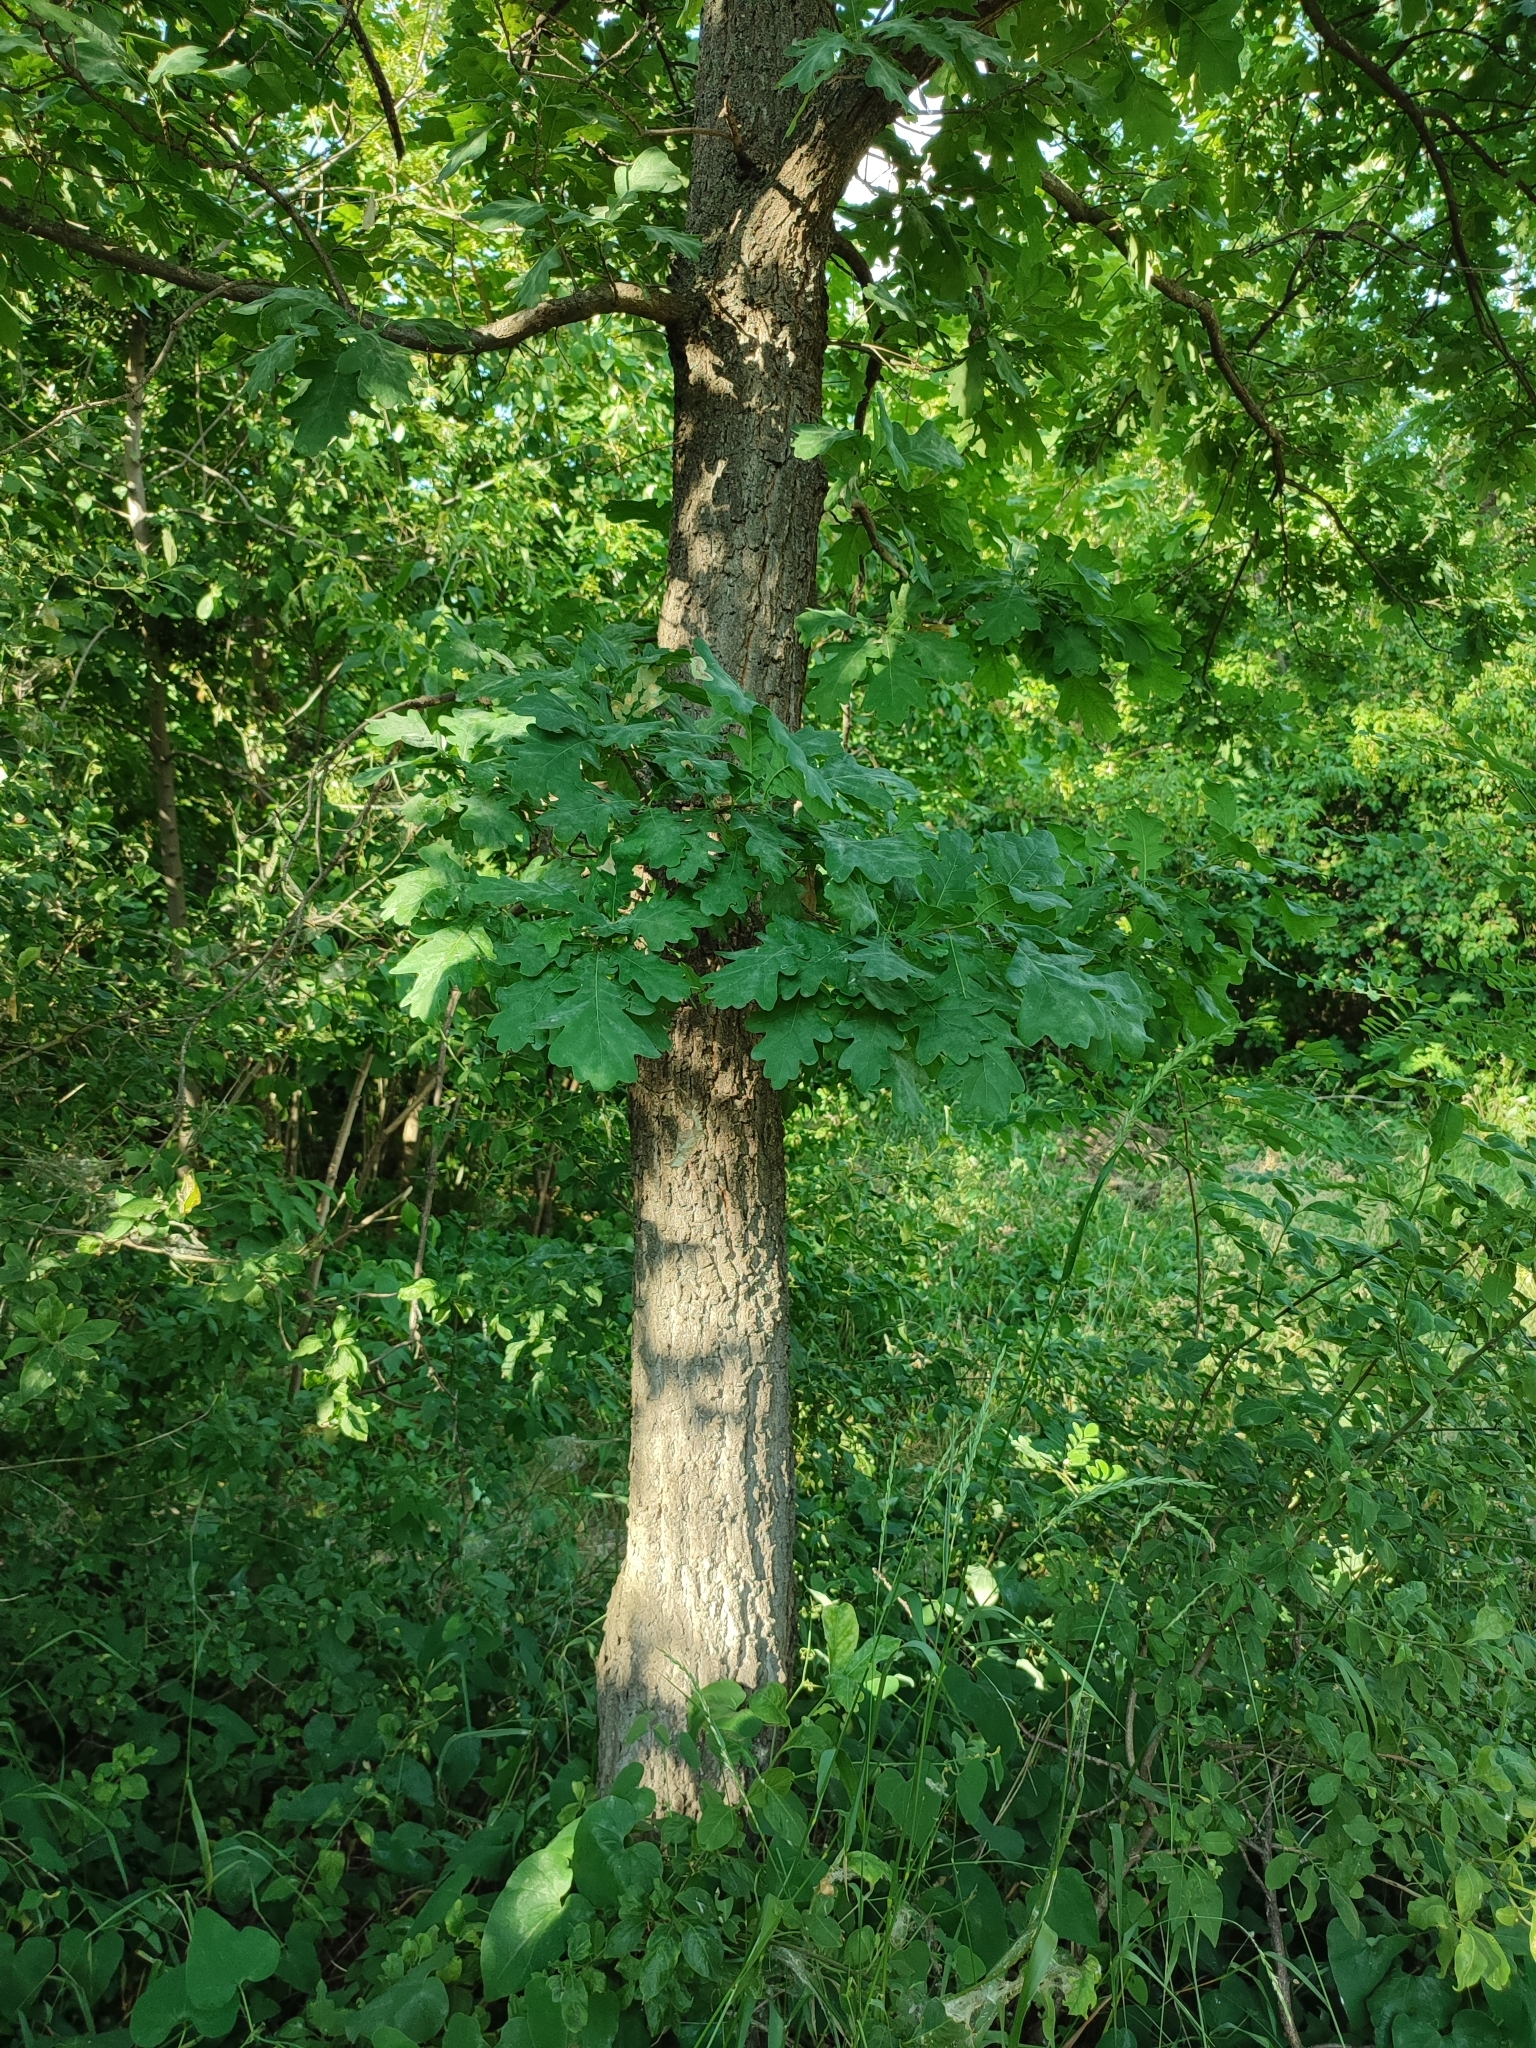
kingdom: Plantae
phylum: Tracheophyta
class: Magnoliopsida
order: Fagales
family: Fagaceae
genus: Quercus
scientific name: Quercus robur
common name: Pedunculate oak
